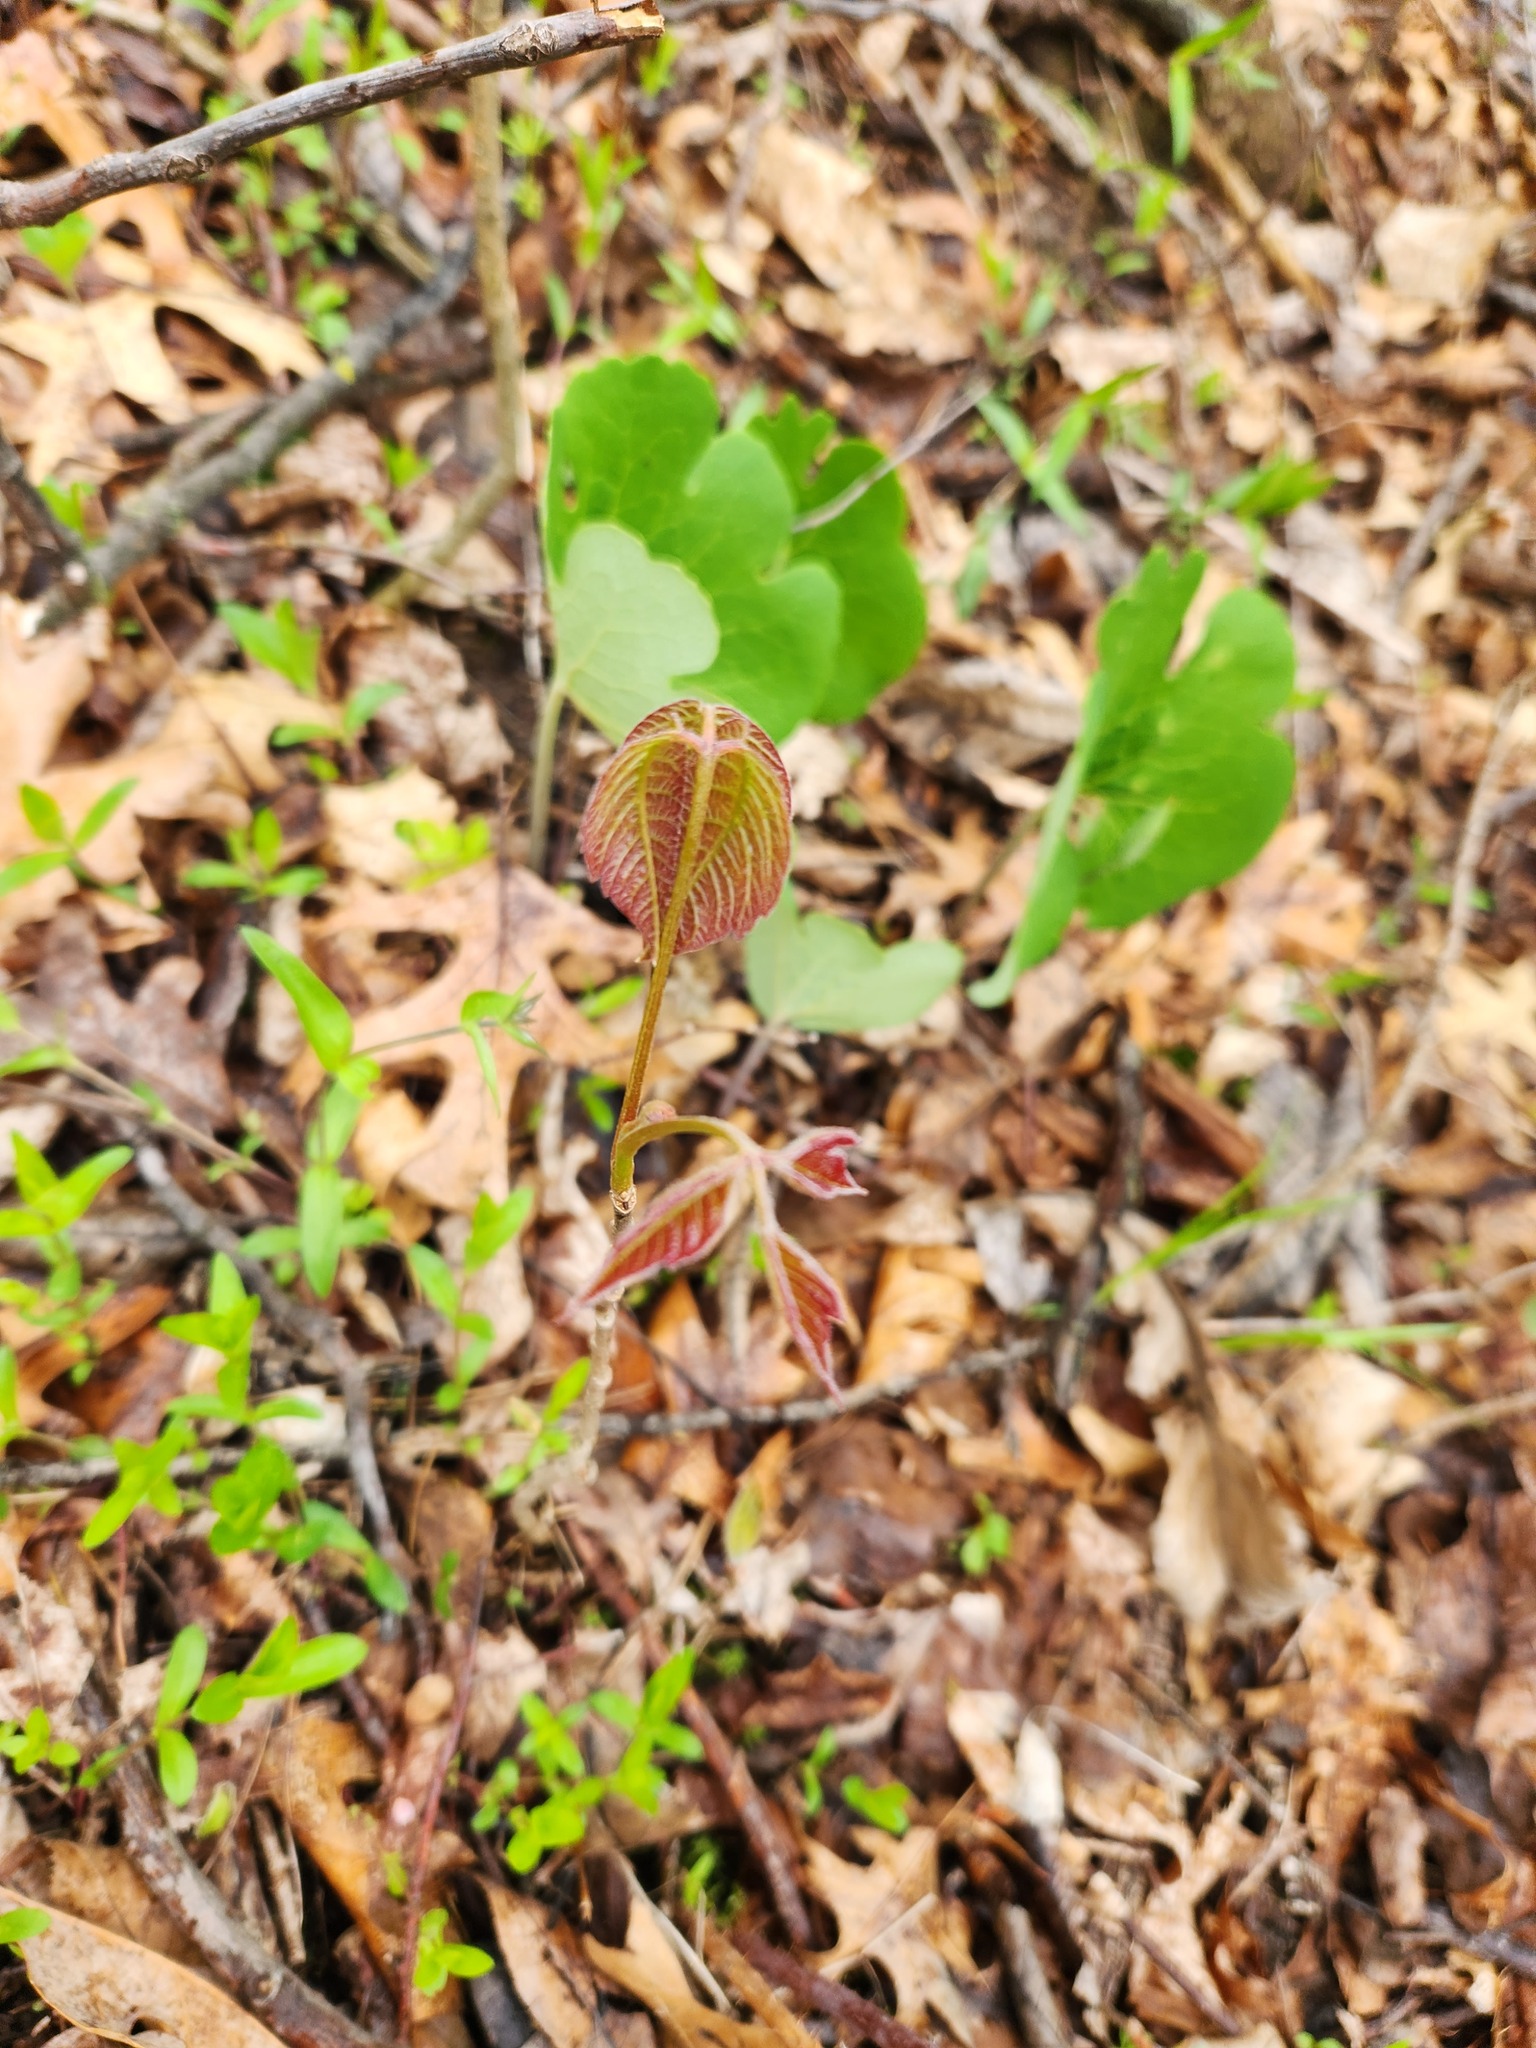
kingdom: Plantae
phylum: Tracheophyta
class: Magnoliopsida
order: Sapindales
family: Anacardiaceae
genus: Toxicodendron
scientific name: Toxicodendron radicans
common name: Poison ivy
